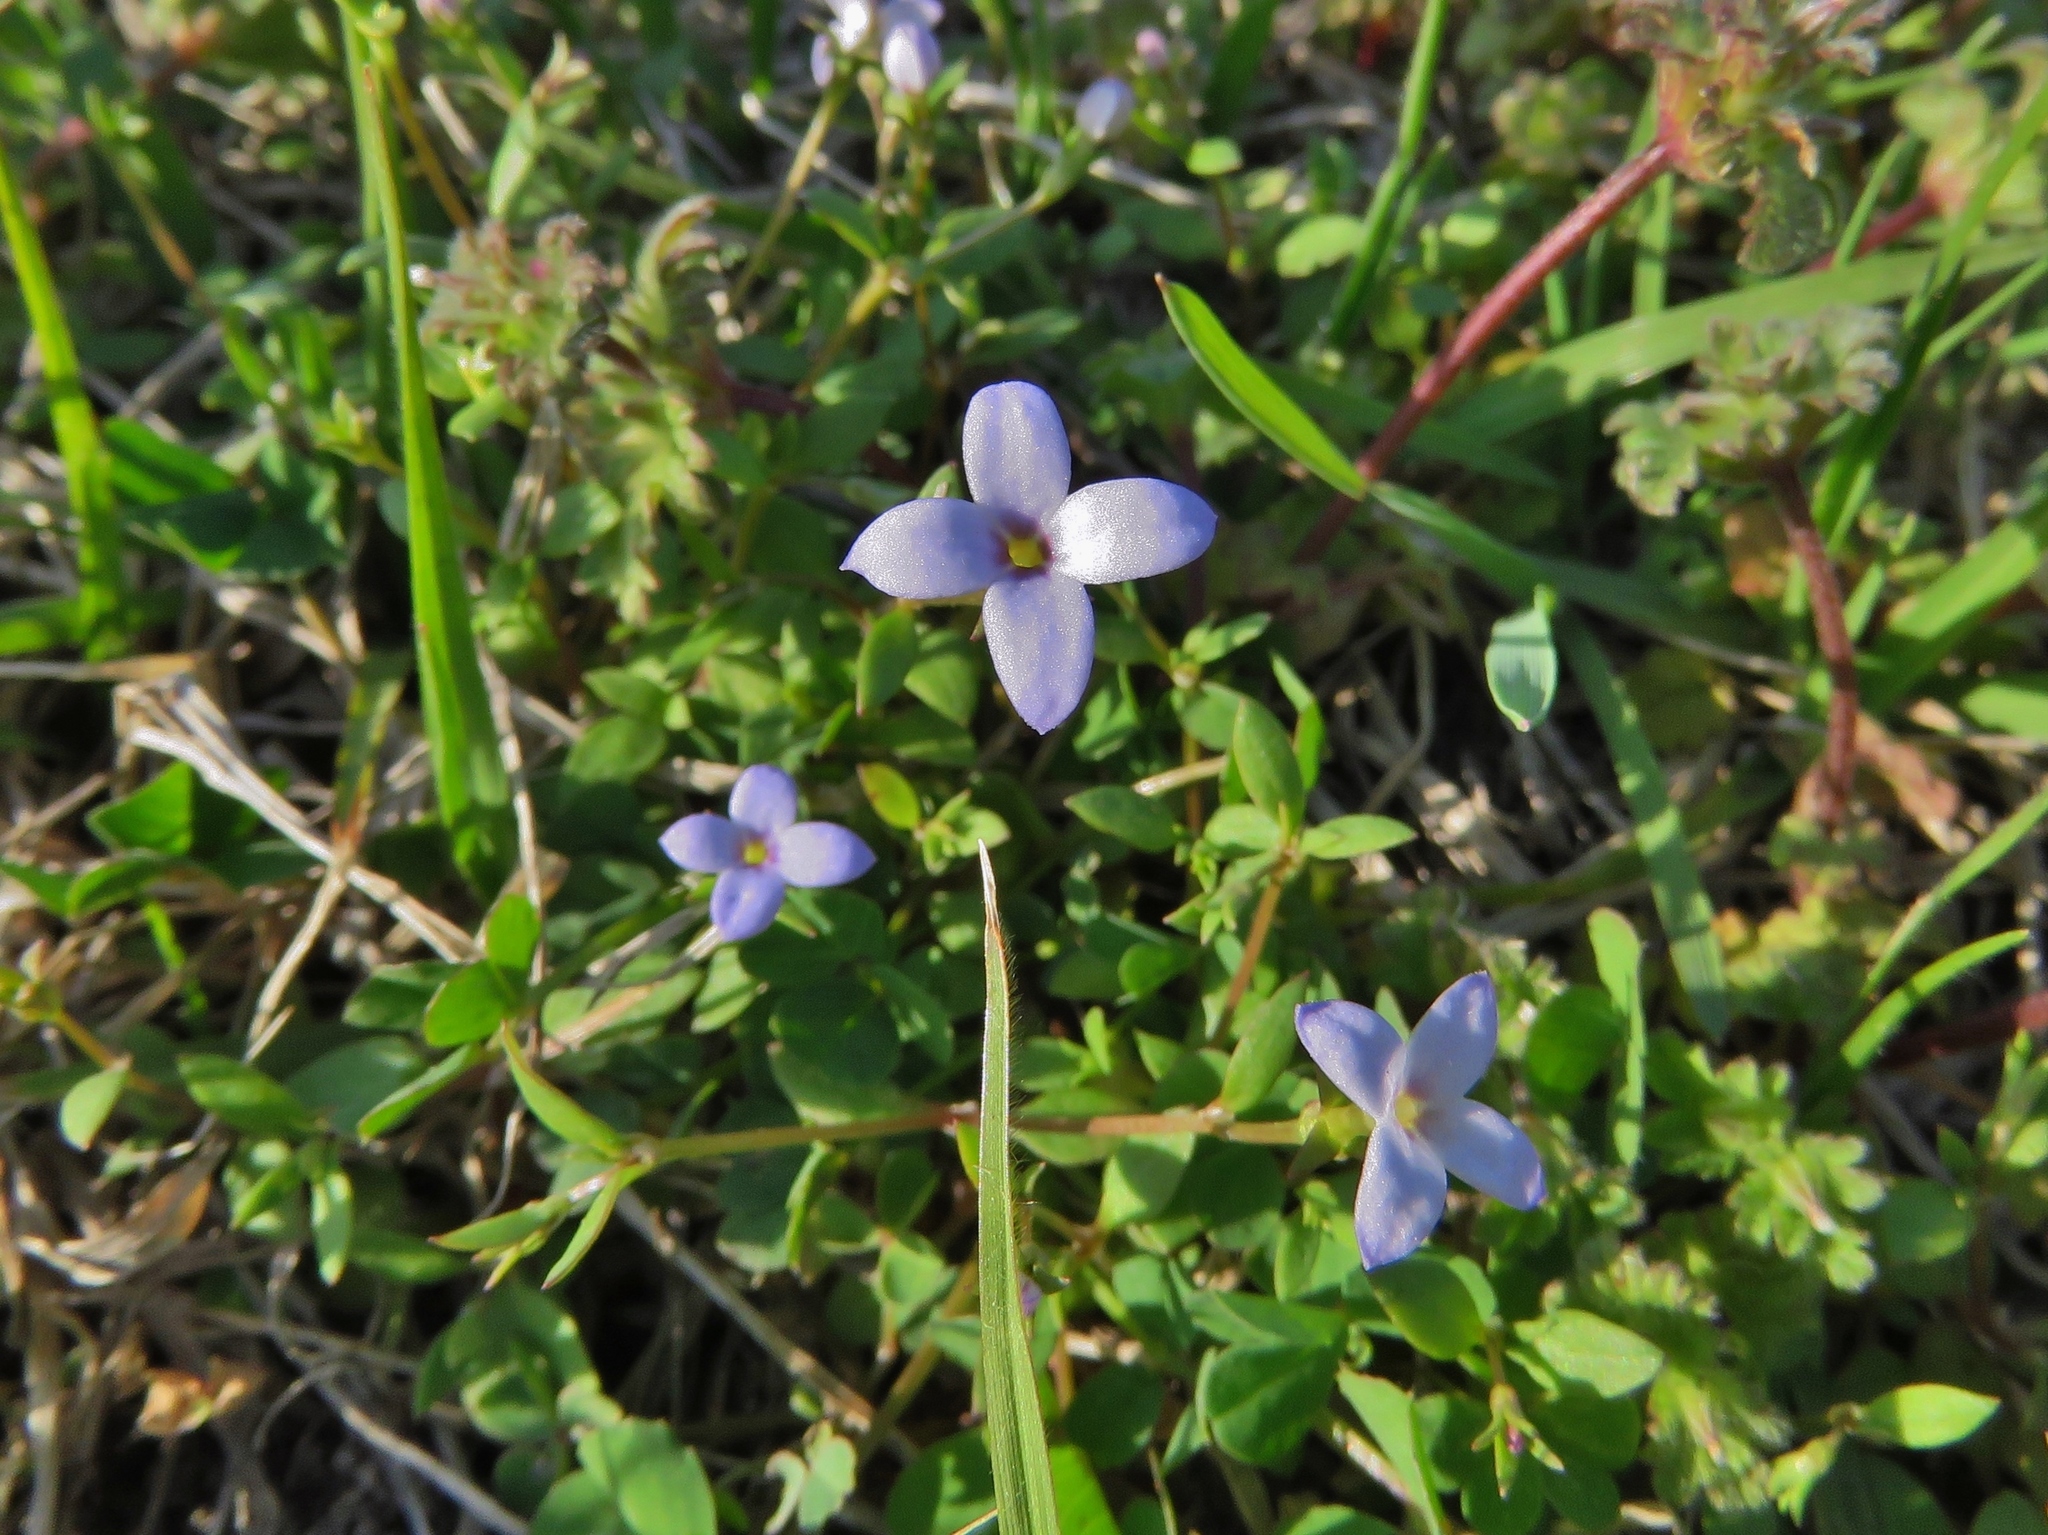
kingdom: Plantae
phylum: Tracheophyta
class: Magnoliopsida
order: Gentianales
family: Rubiaceae
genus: Houstonia
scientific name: Houstonia pusilla
